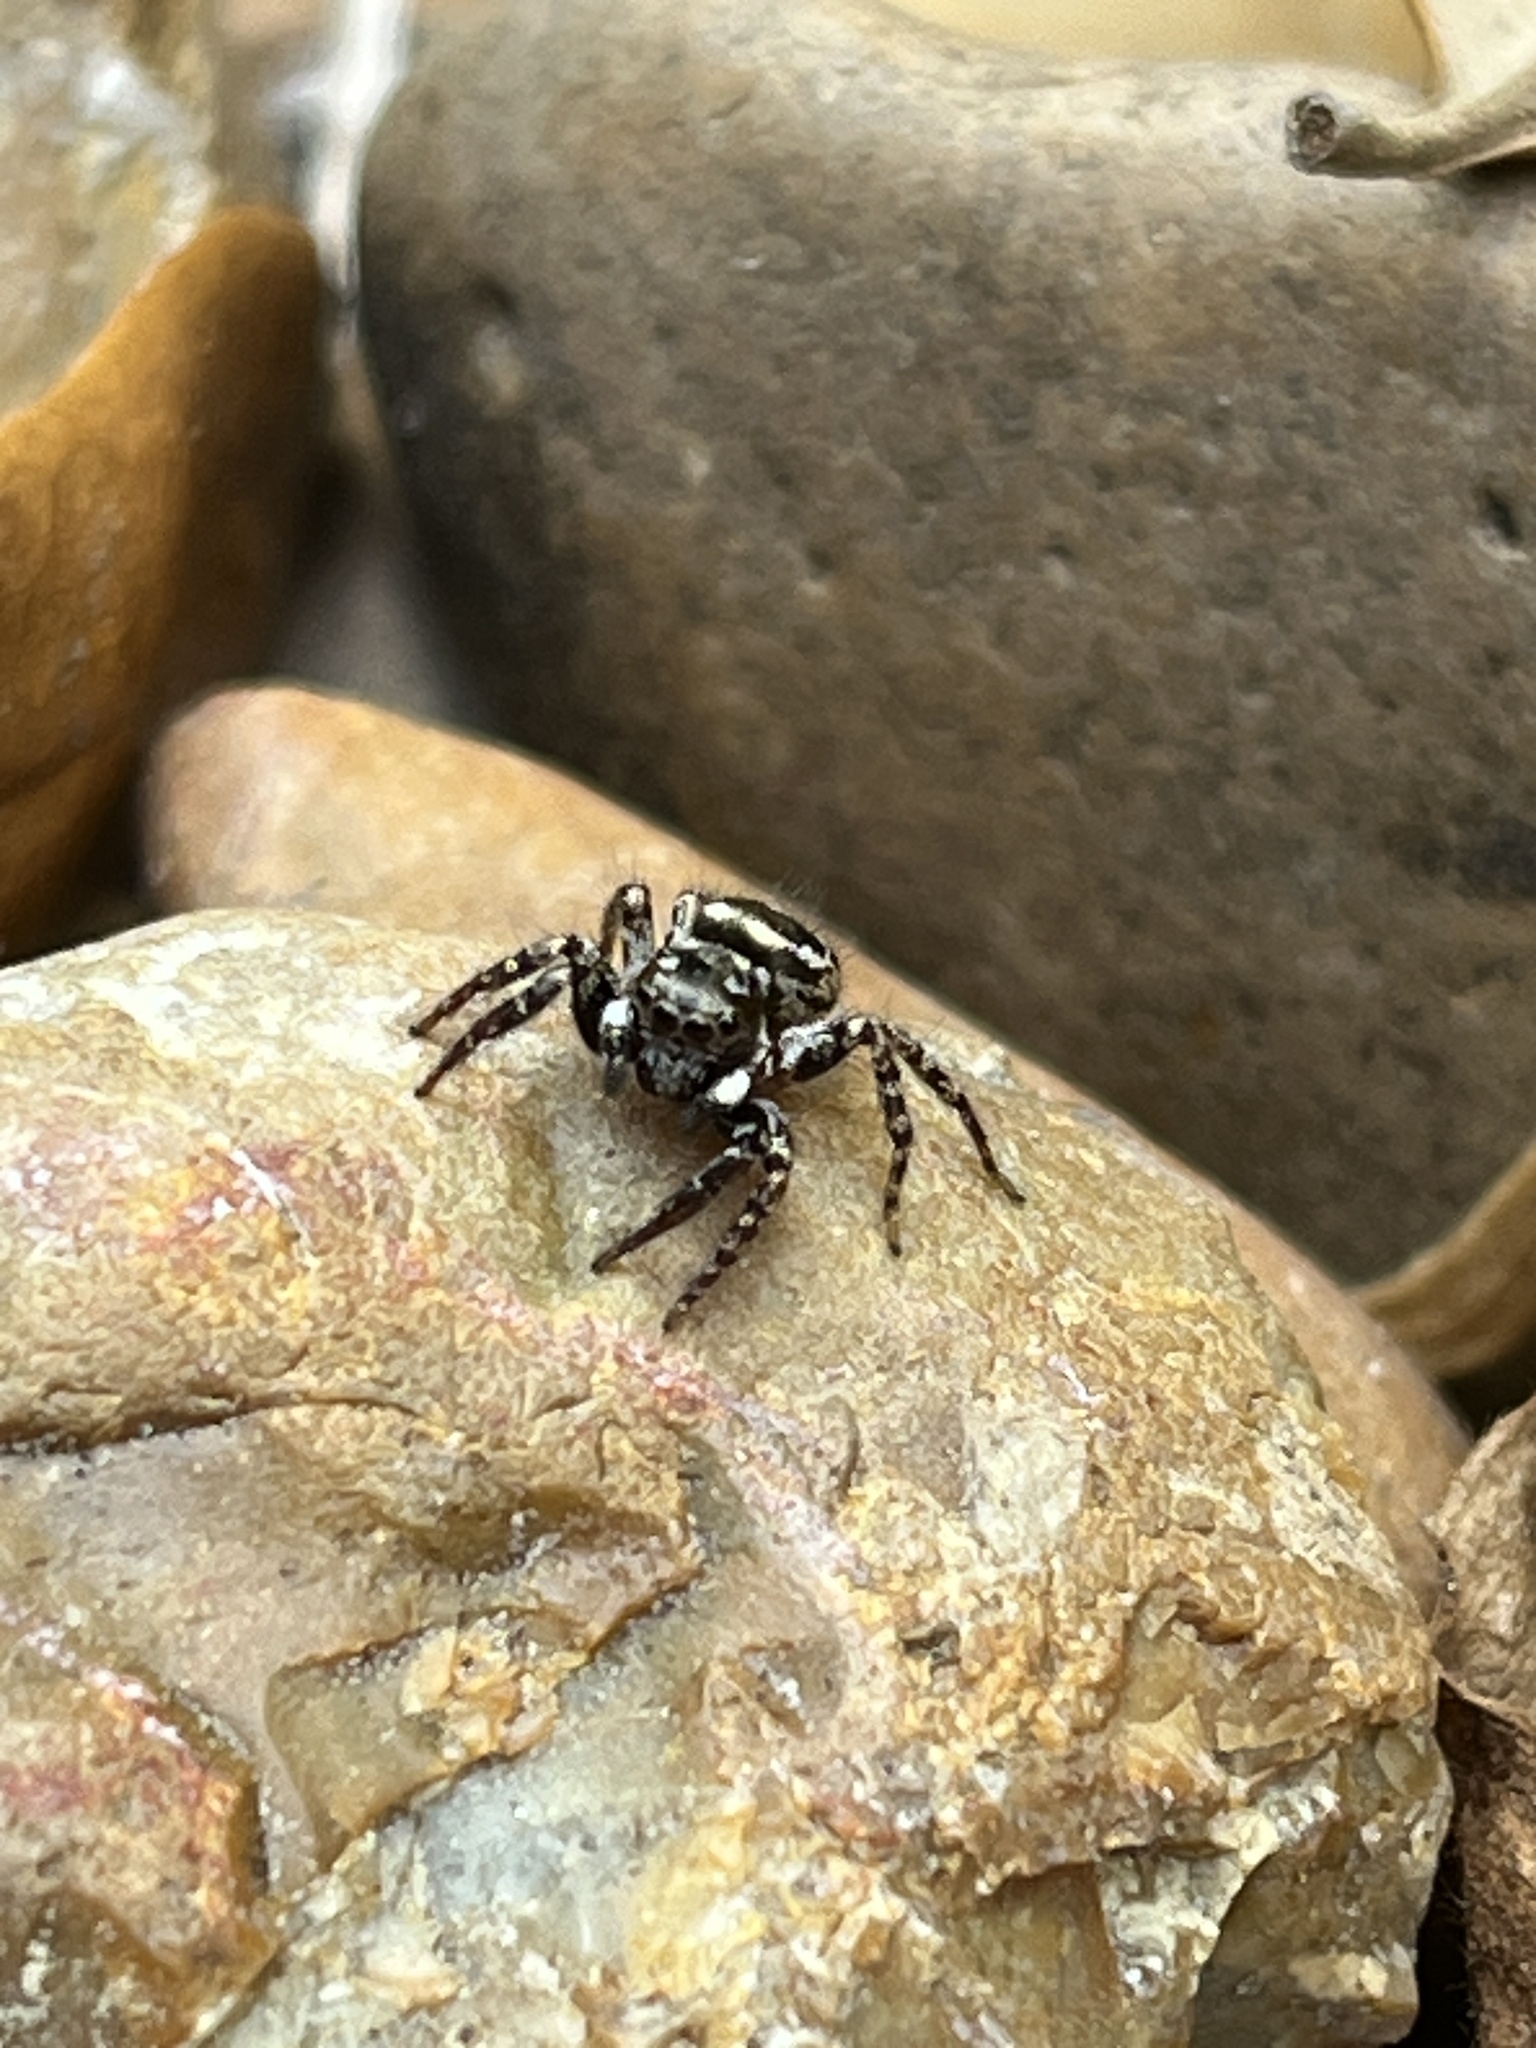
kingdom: Animalia
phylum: Arthropoda
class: Arachnida
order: Araneae
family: Salticidae
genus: Anasaitis
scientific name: Anasaitis canosa
